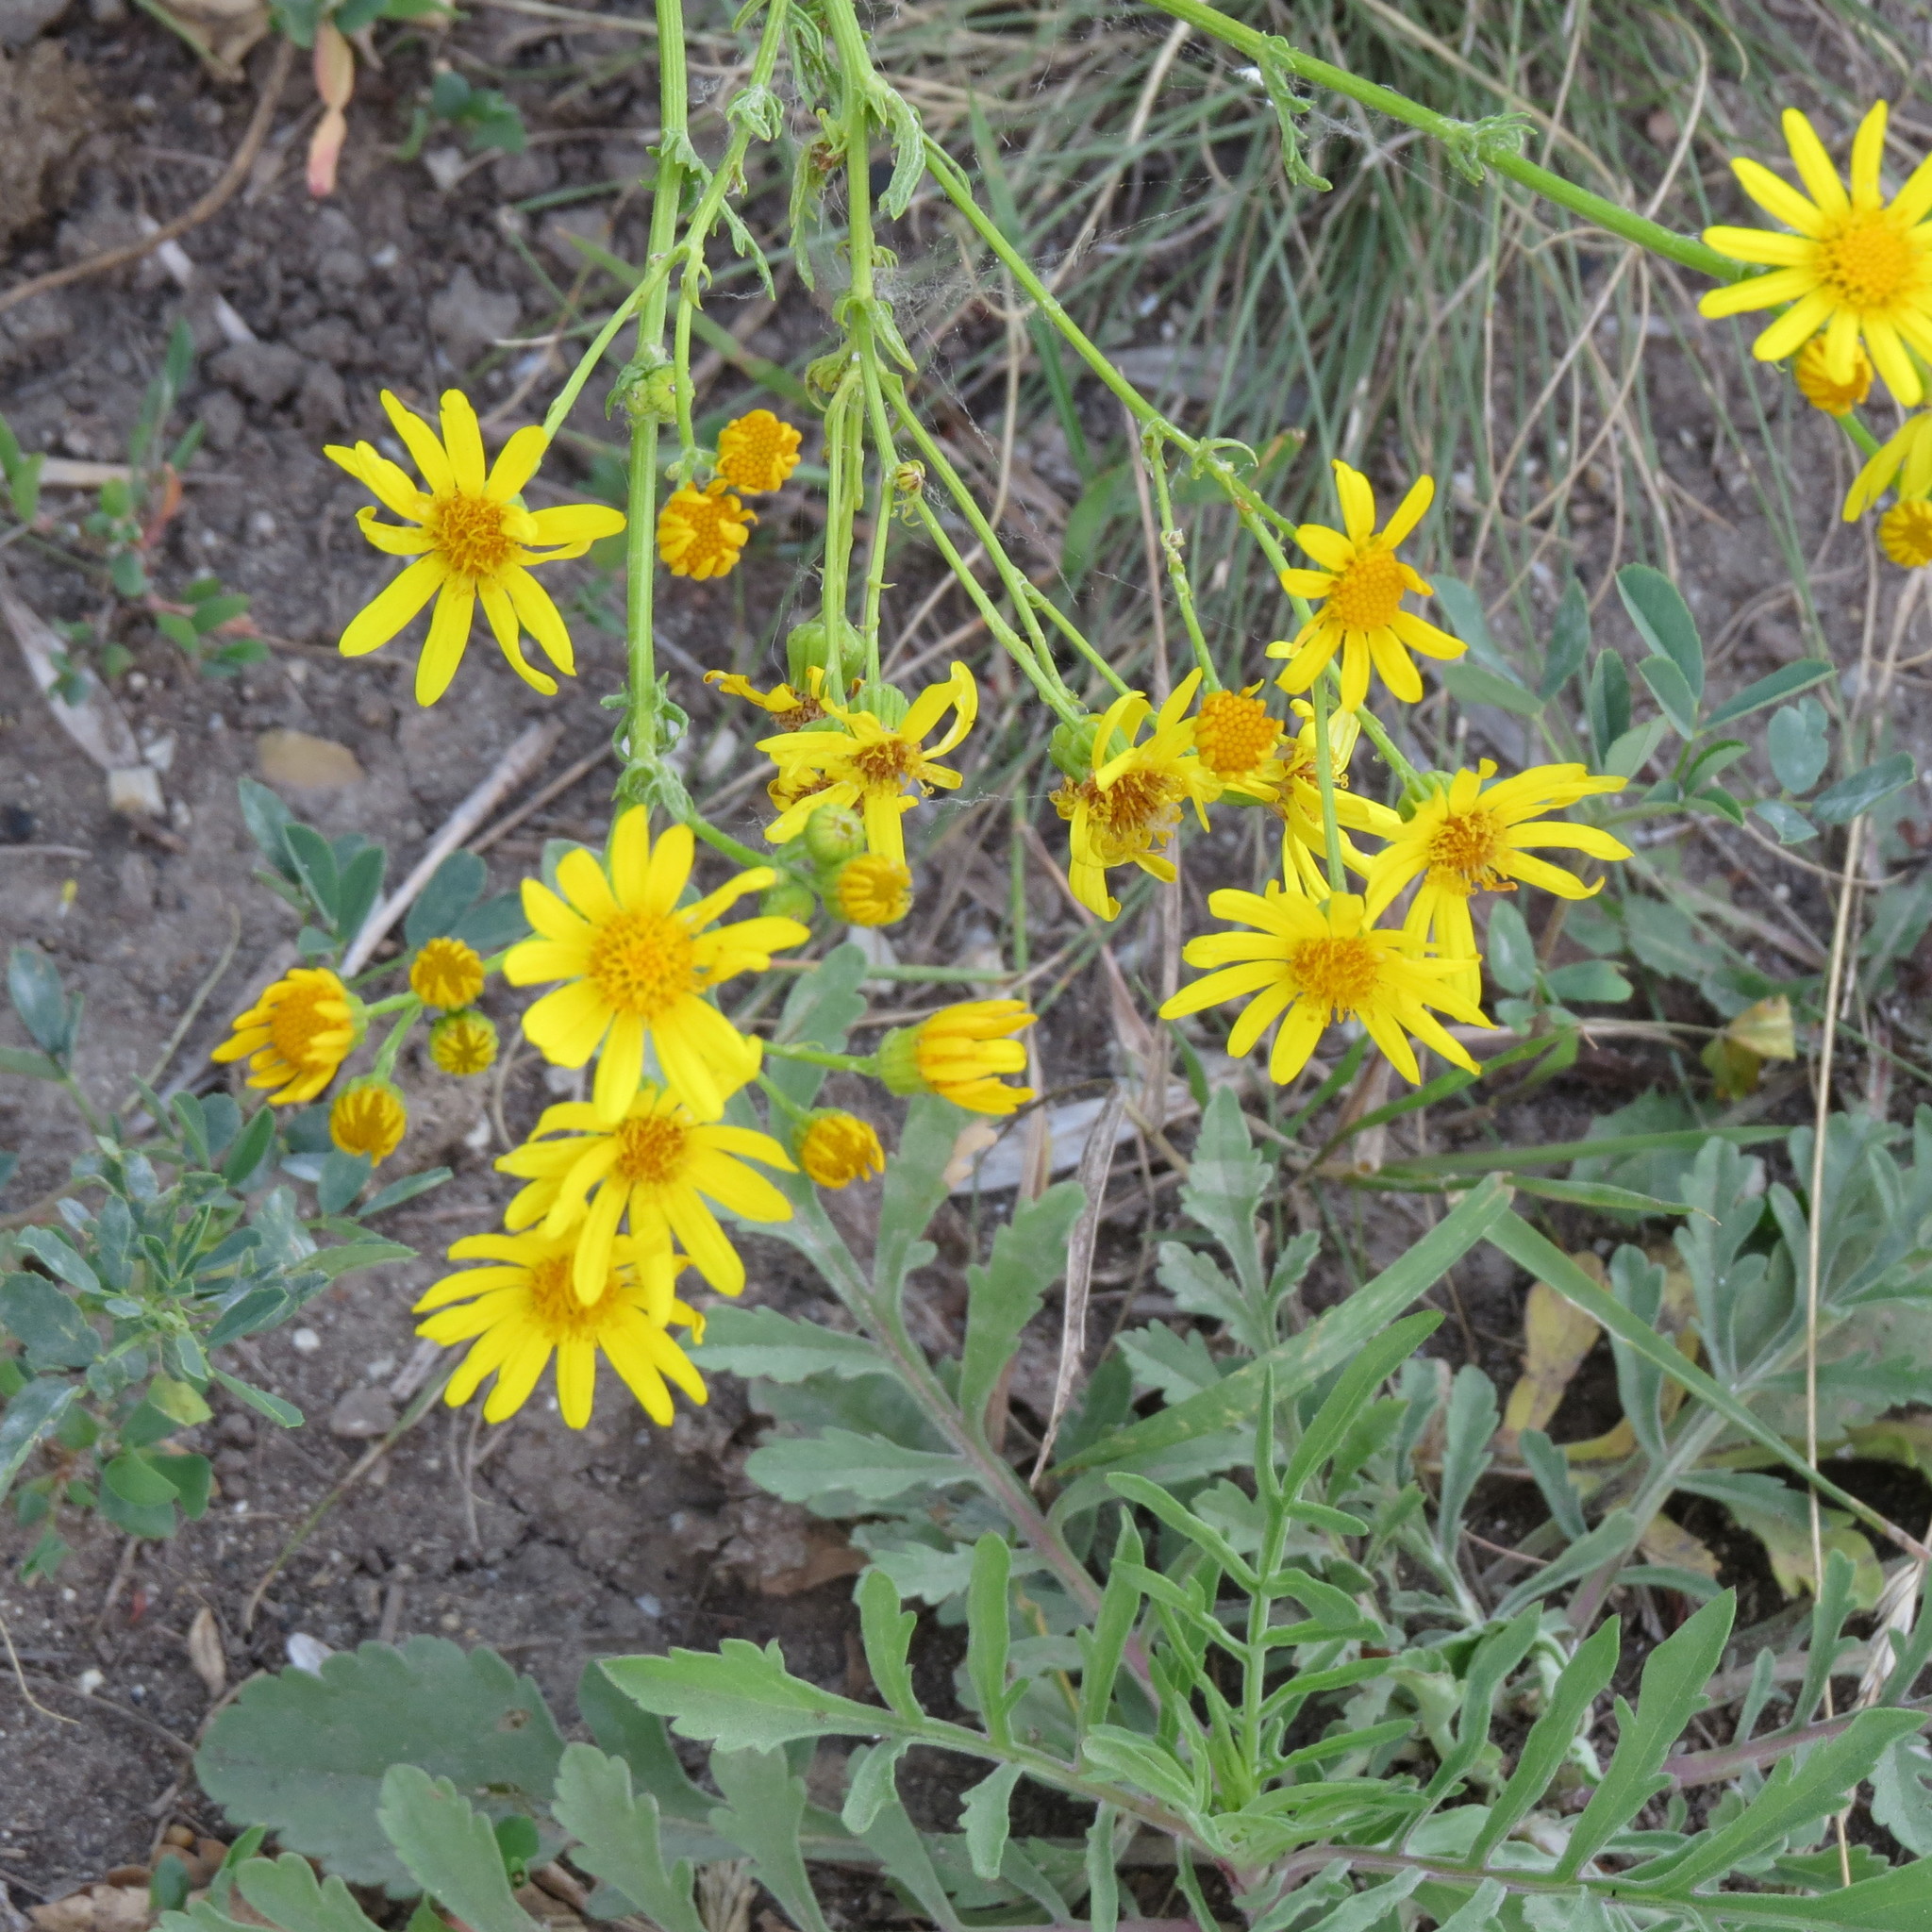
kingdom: Plantae
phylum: Tracheophyta
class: Magnoliopsida
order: Asterales
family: Asteraceae
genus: Jacobaea
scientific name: Jacobaea vulgaris
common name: Stinking willie
